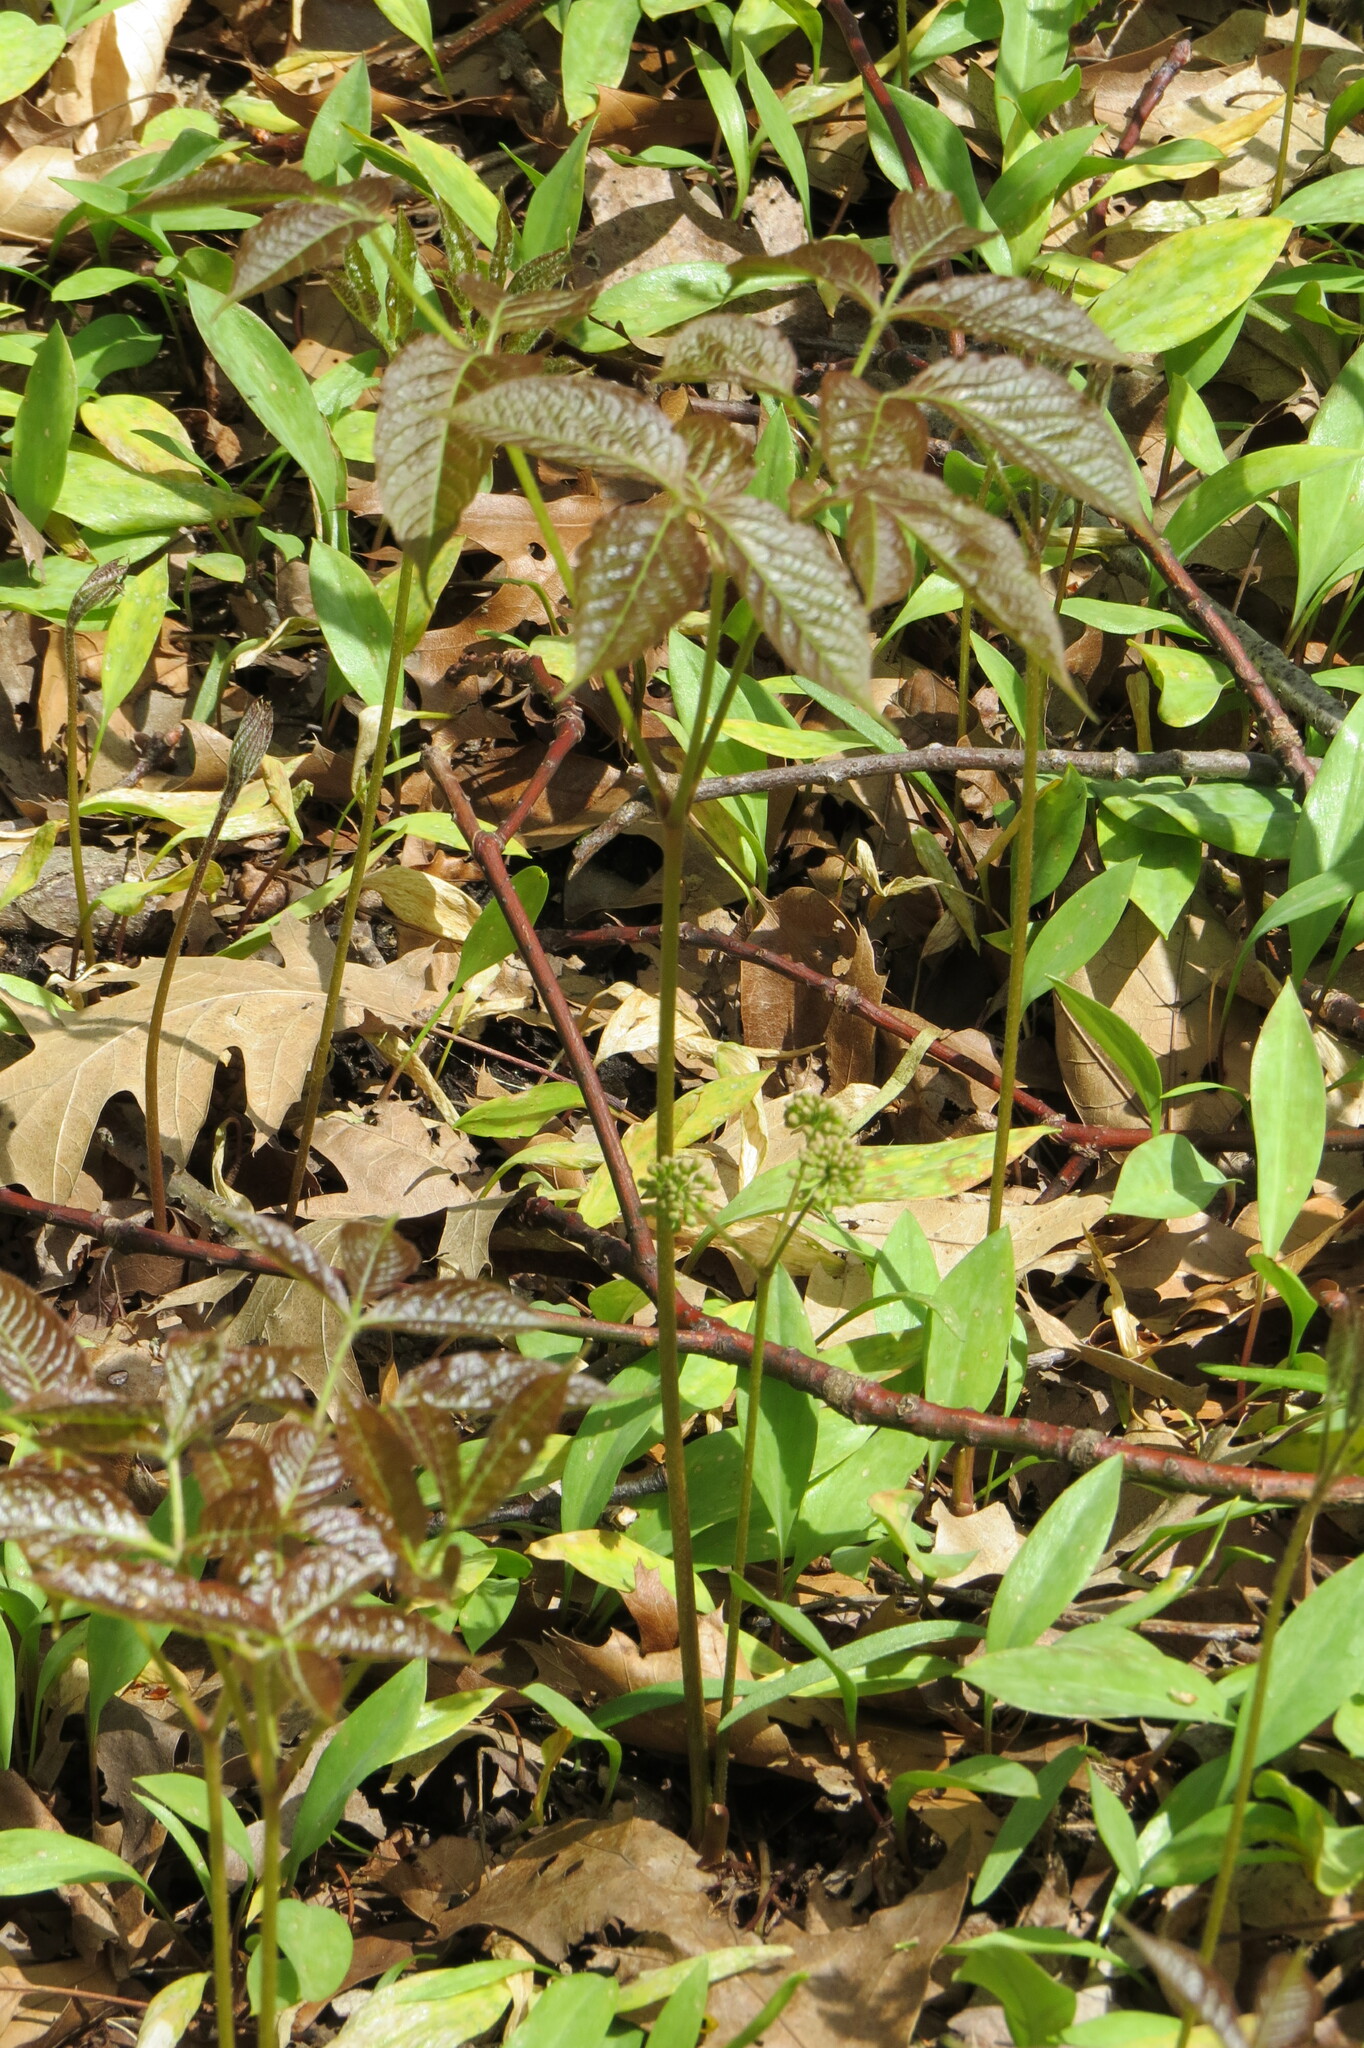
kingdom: Plantae
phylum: Tracheophyta
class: Magnoliopsida
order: Apiales
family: Araliaceae
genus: Aralia
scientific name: Aralia nudicaulis
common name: Wild sarsaparilla
